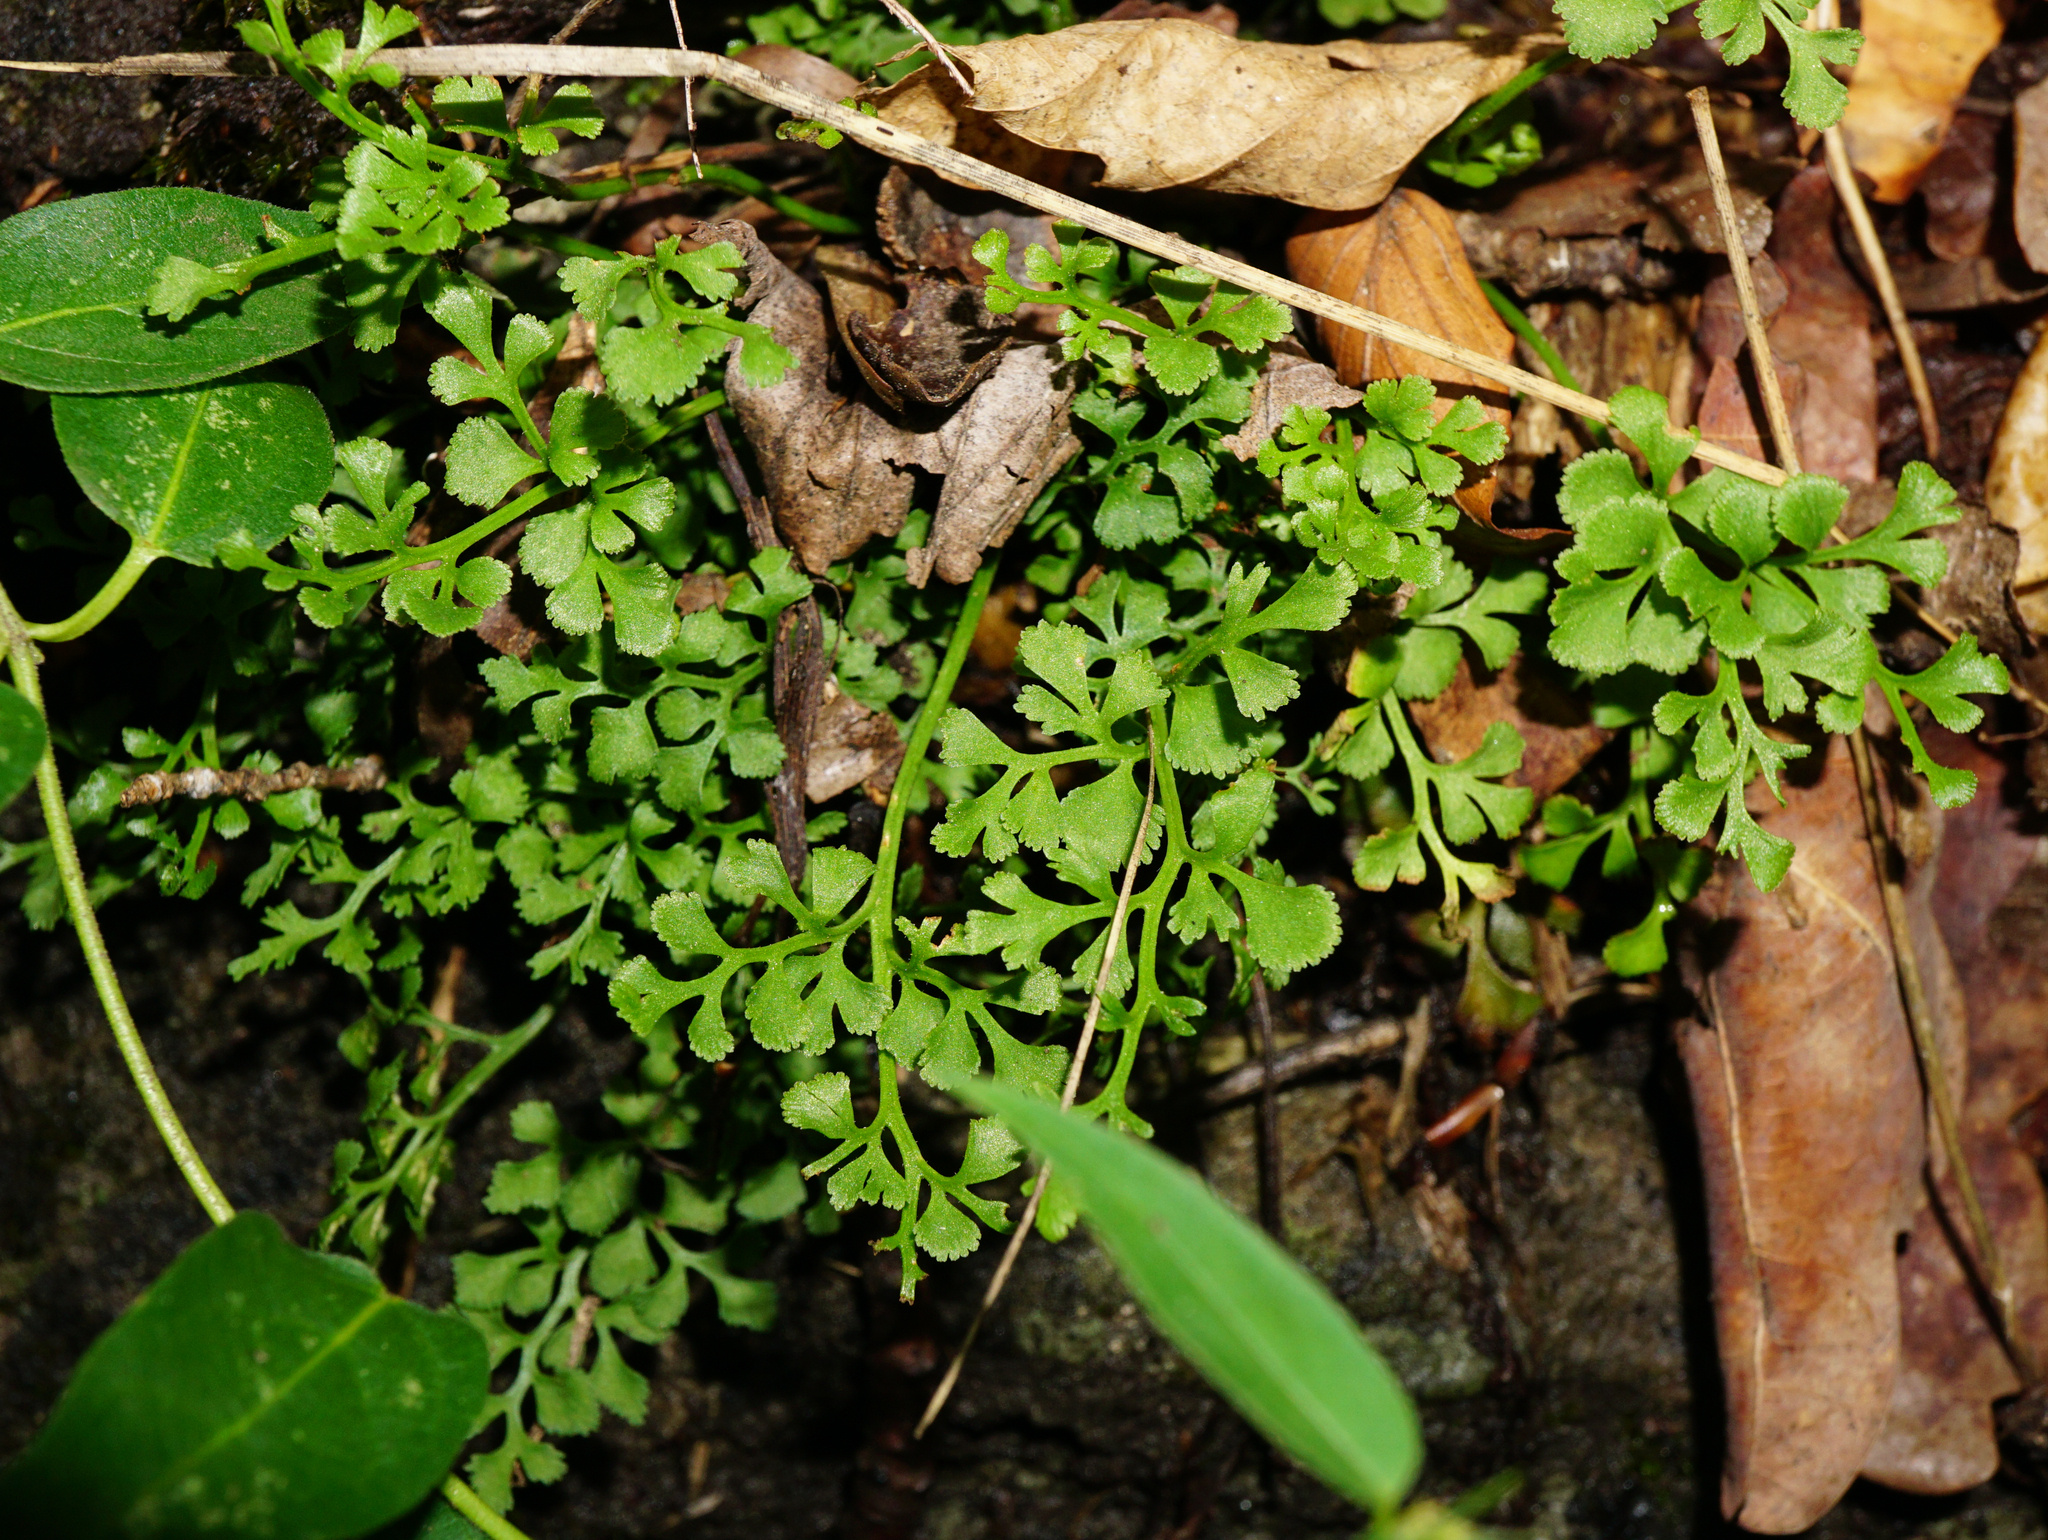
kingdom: Plantae
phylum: Tracheophyta
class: Polypodiopsida
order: Polypodiales
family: Aspleniaceae
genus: Asplenium
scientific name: Asplenium ruta-muraria
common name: Wall-rue
